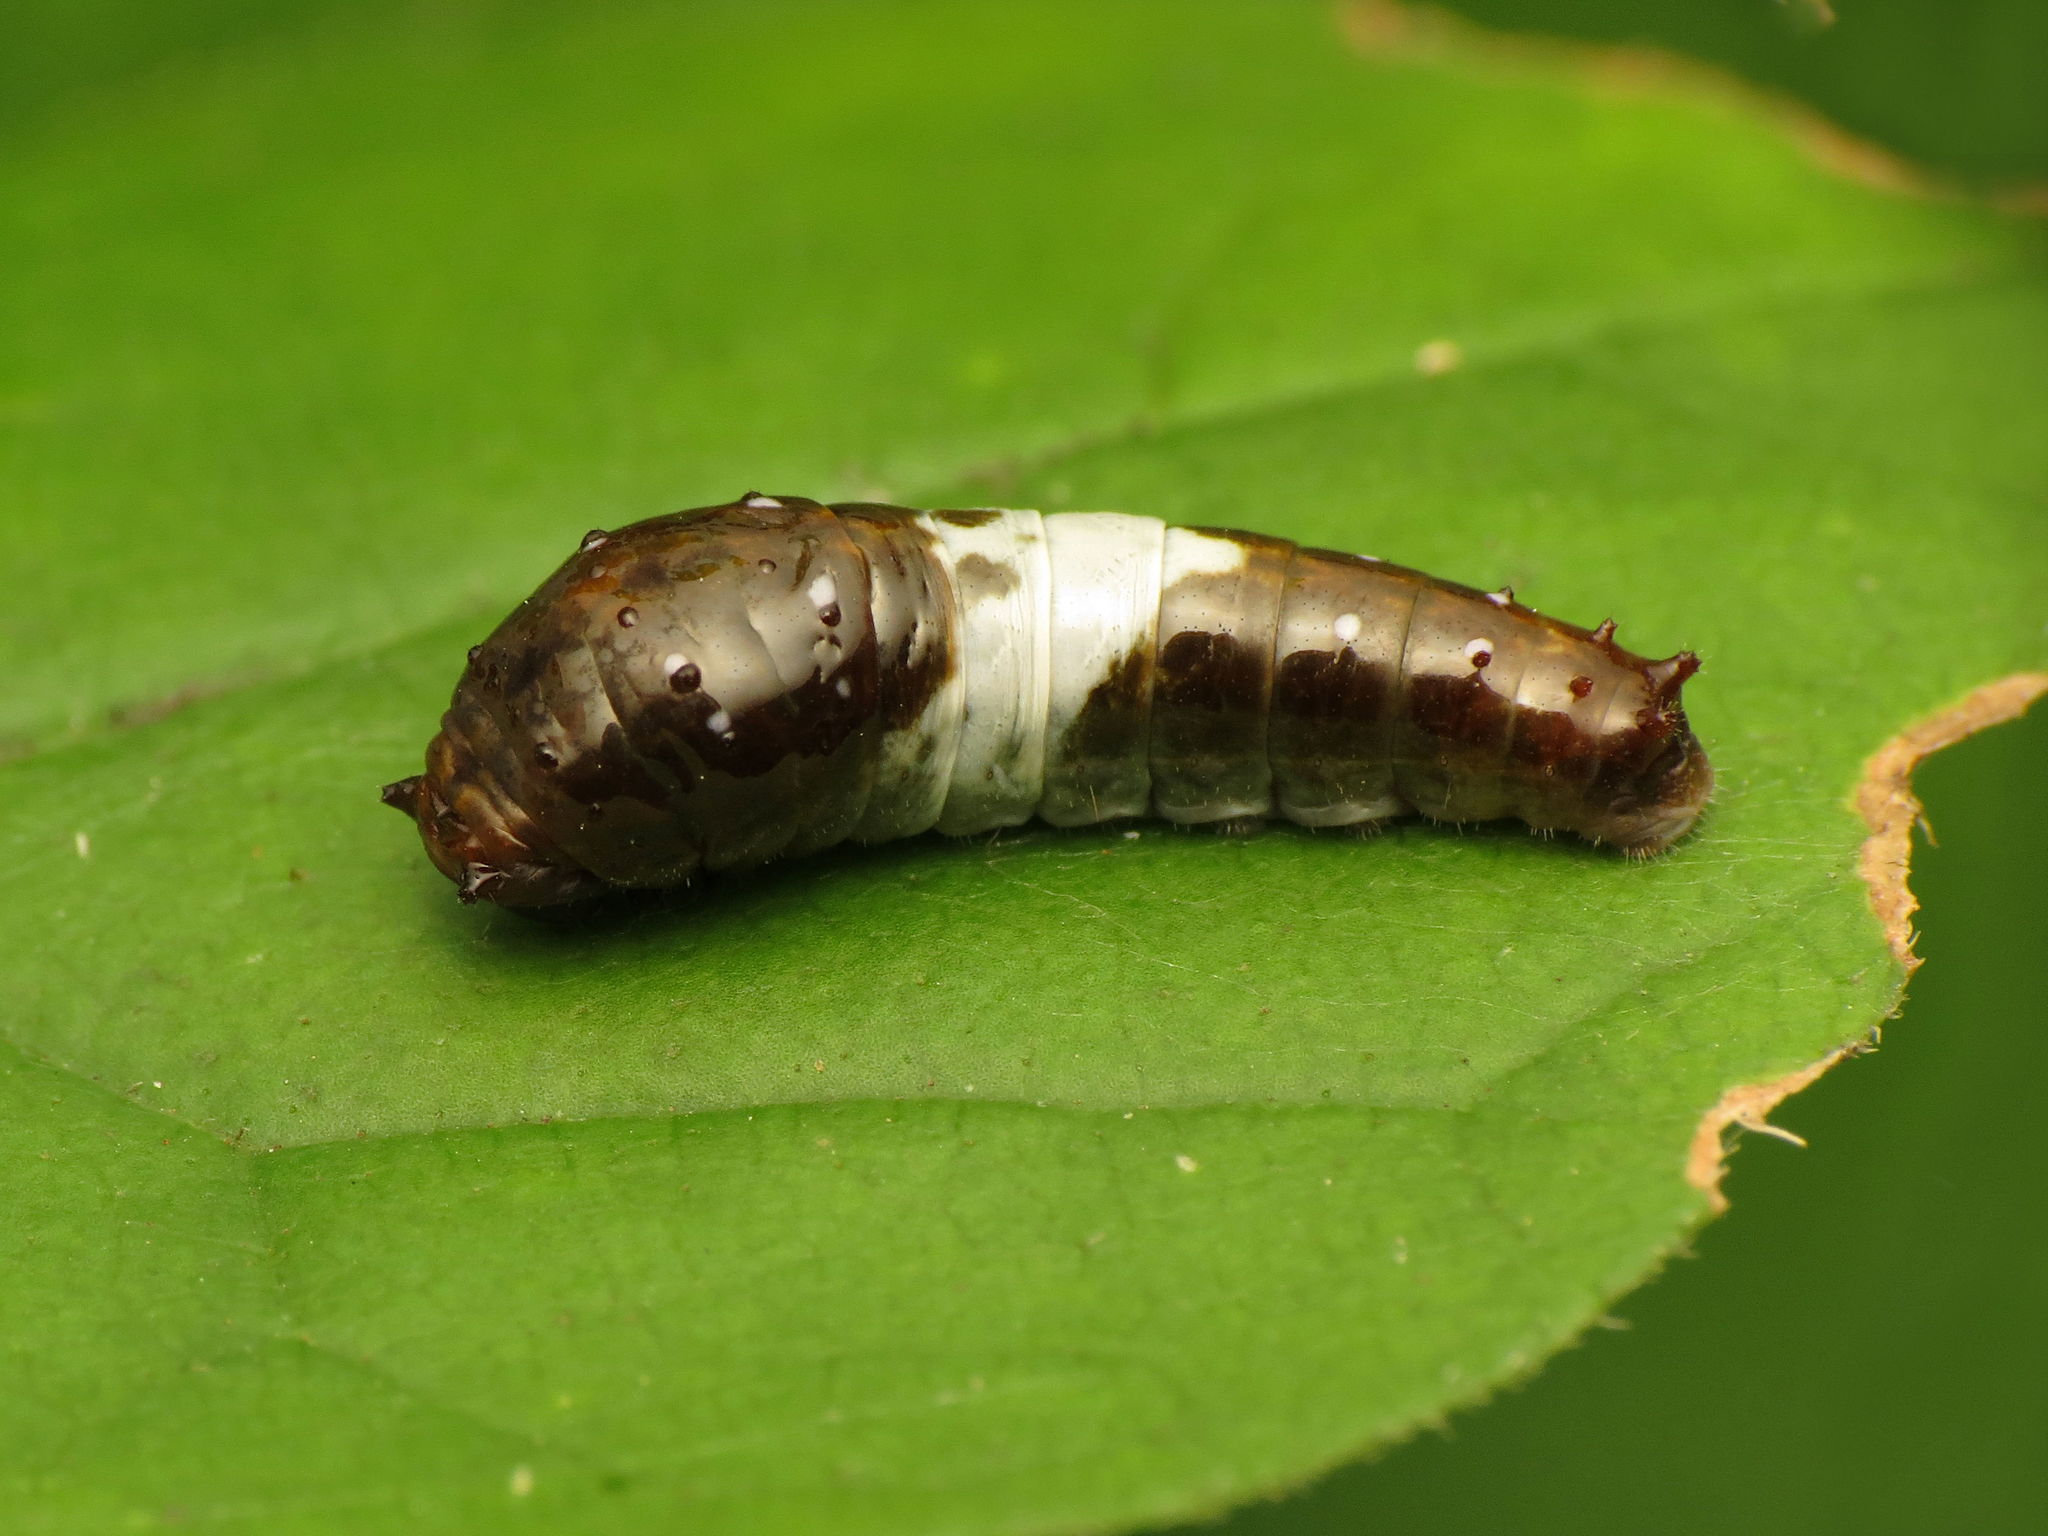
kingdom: Animalia
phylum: Arthropoda
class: Insecta
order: Lepidoptera
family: Papilionidae
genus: Papilio
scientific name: Papilio glaucus
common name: Tiger swallowtail
